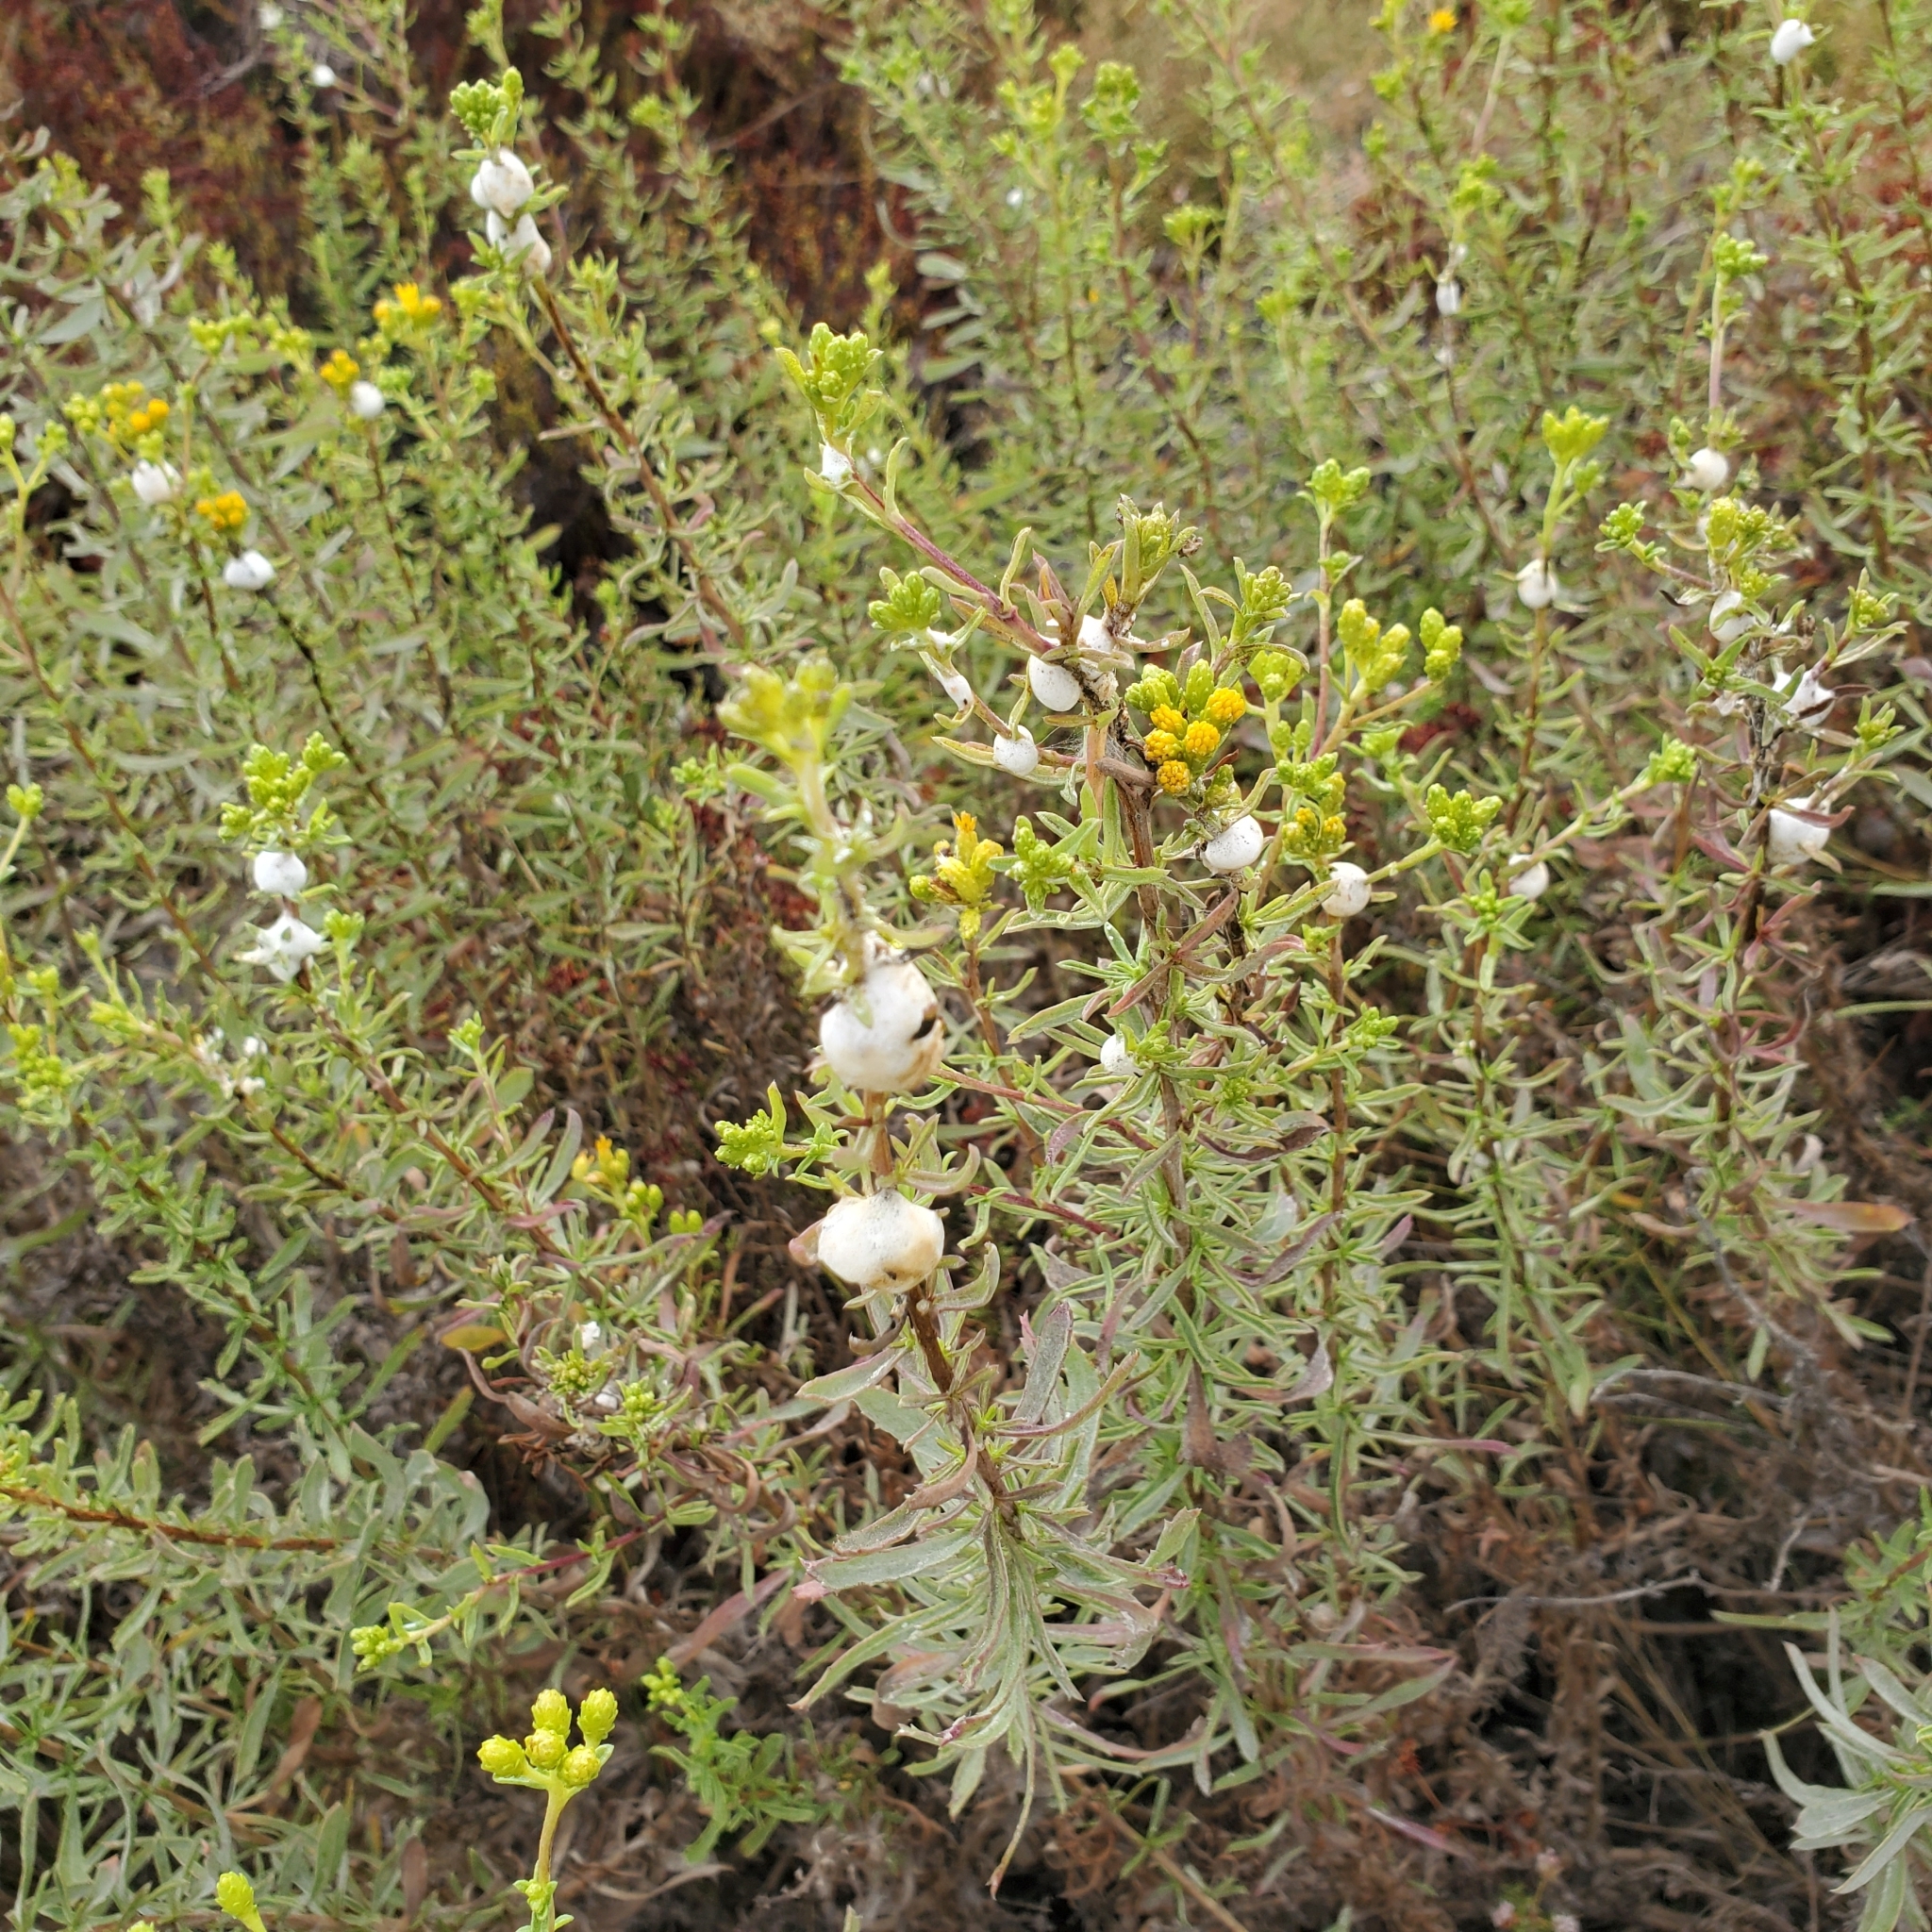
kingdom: Plantae
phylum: Tracheophyta
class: Magnoliopsida
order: Asterales
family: Asteraceae
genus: Isocoma
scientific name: Isocoma menziesii
